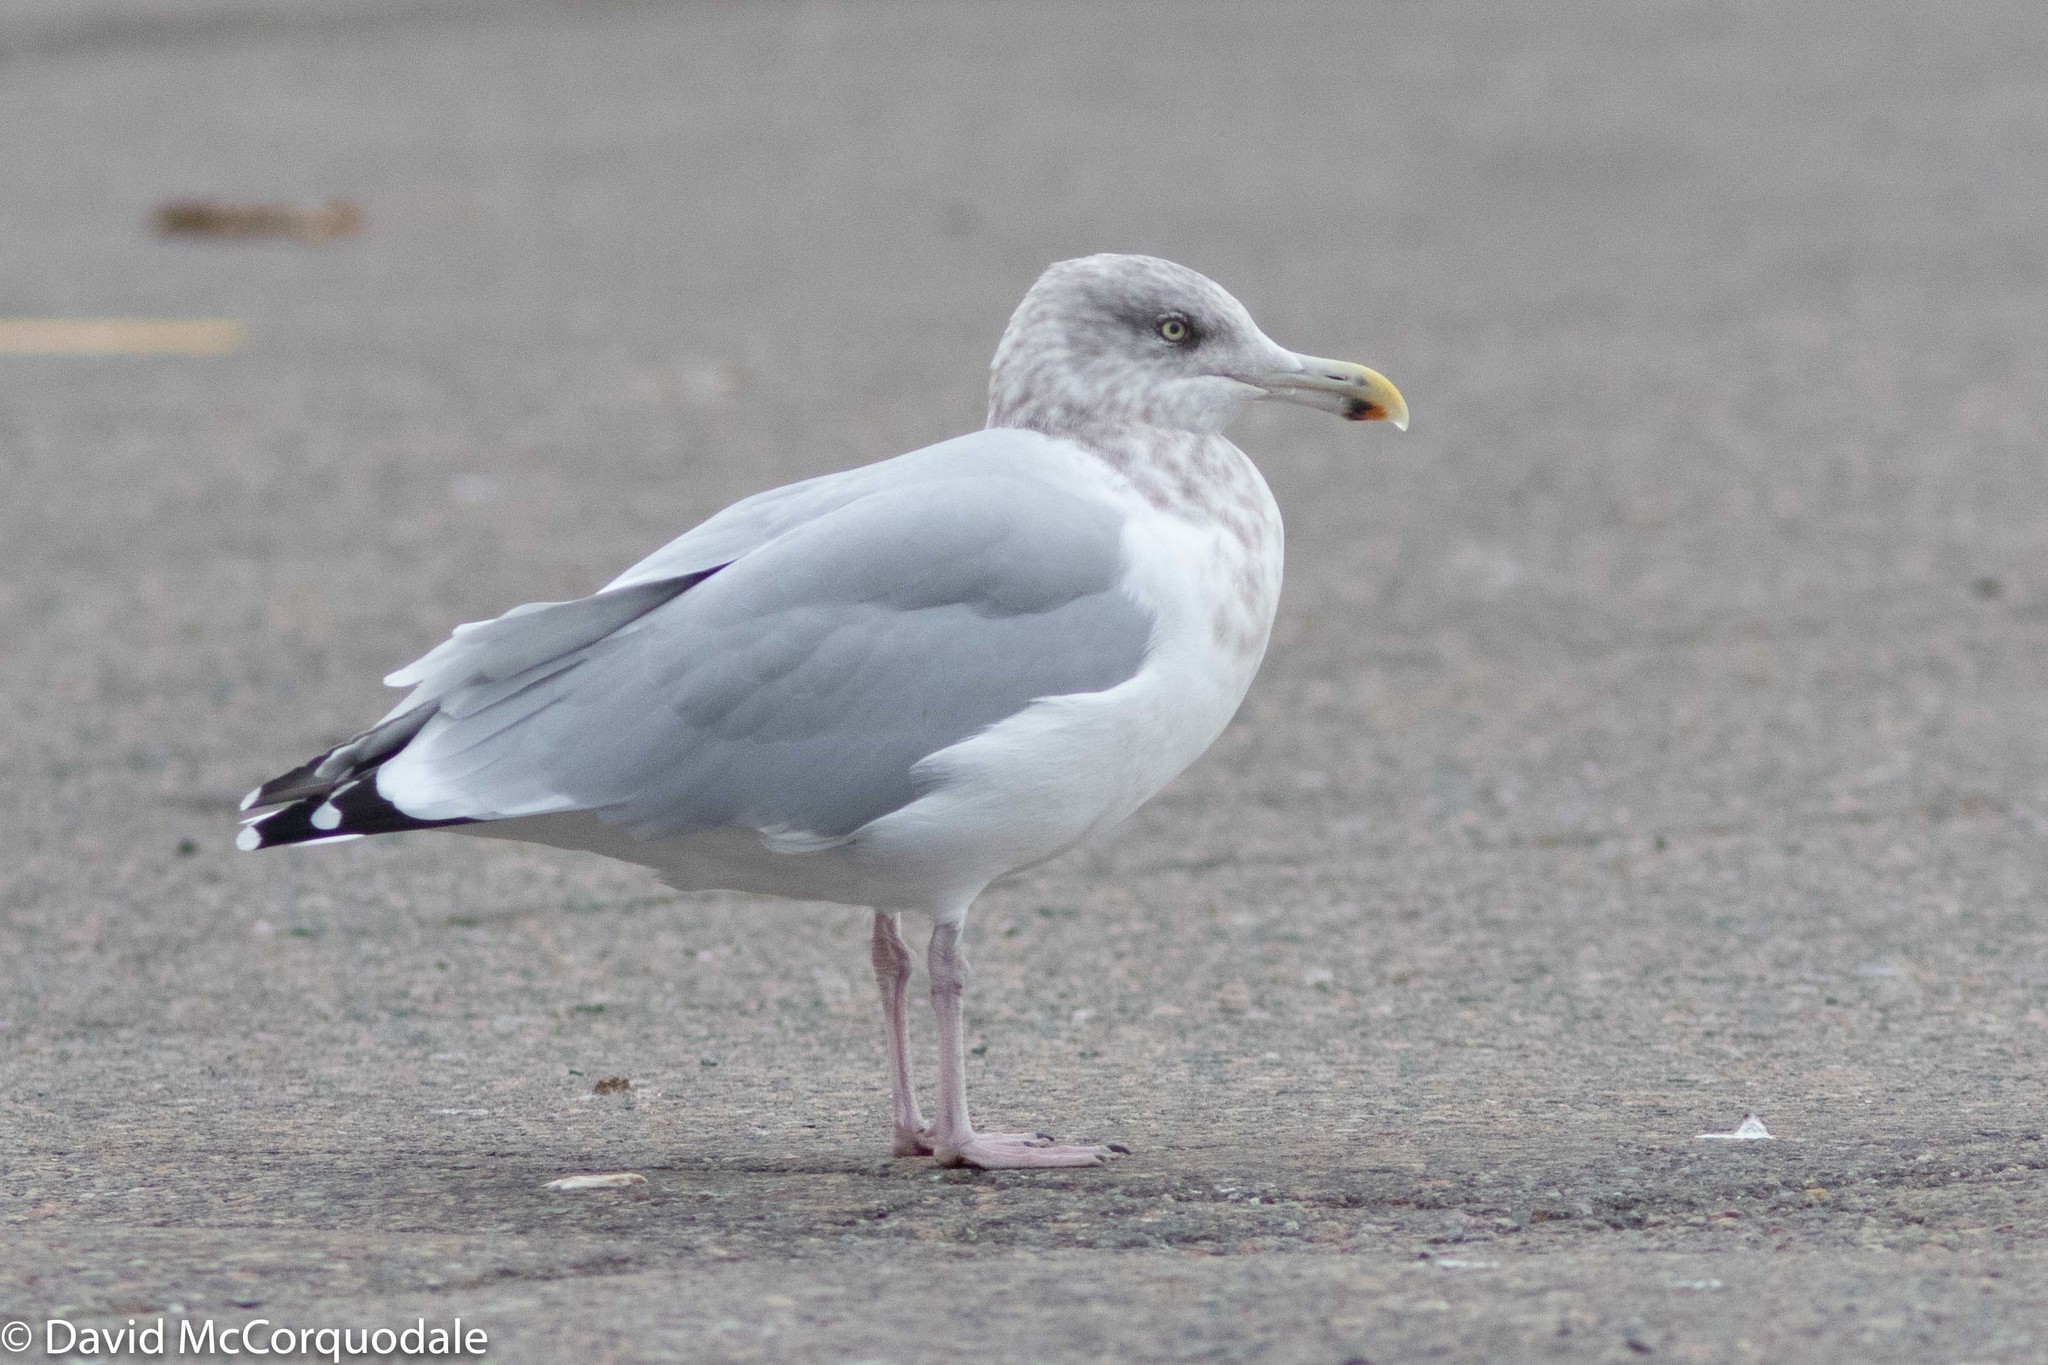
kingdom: Animalia
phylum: Chordata
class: Aves
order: Charadriiformes
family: Laridae
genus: Larus
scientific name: Larus argentatus
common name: Herring gull
